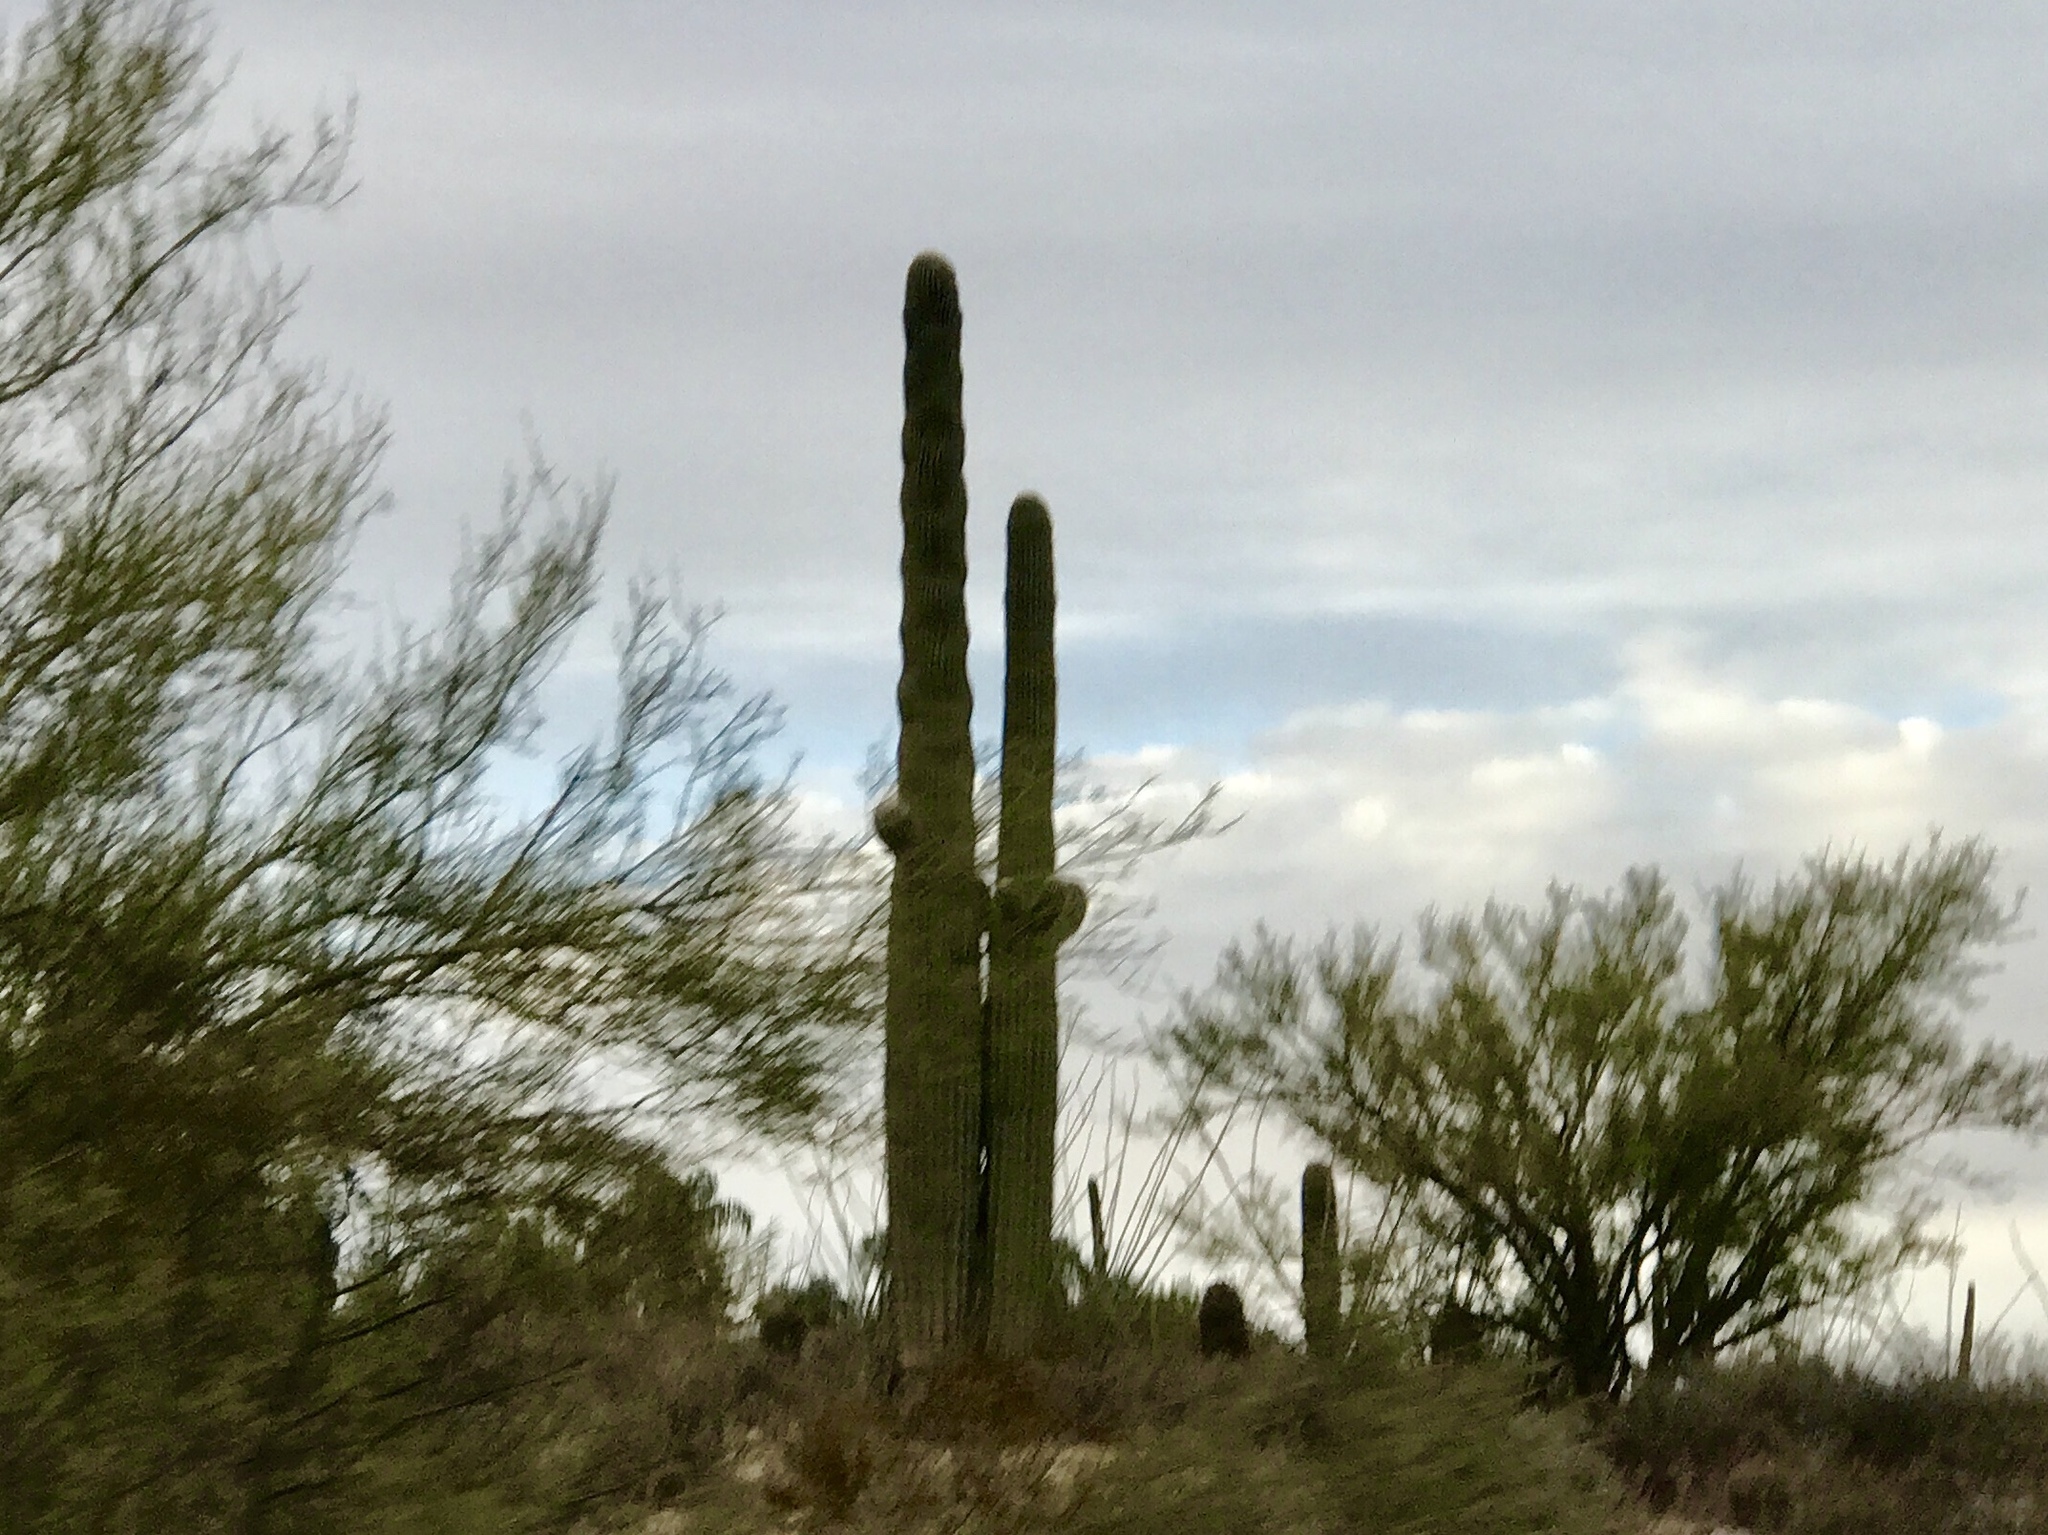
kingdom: Plantae
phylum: Tracheophyta
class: Magnoliopsida
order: Caryophyllales
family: Cactaceae
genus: Carnegiea
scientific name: Carnegiea gigantea
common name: Saguaro
